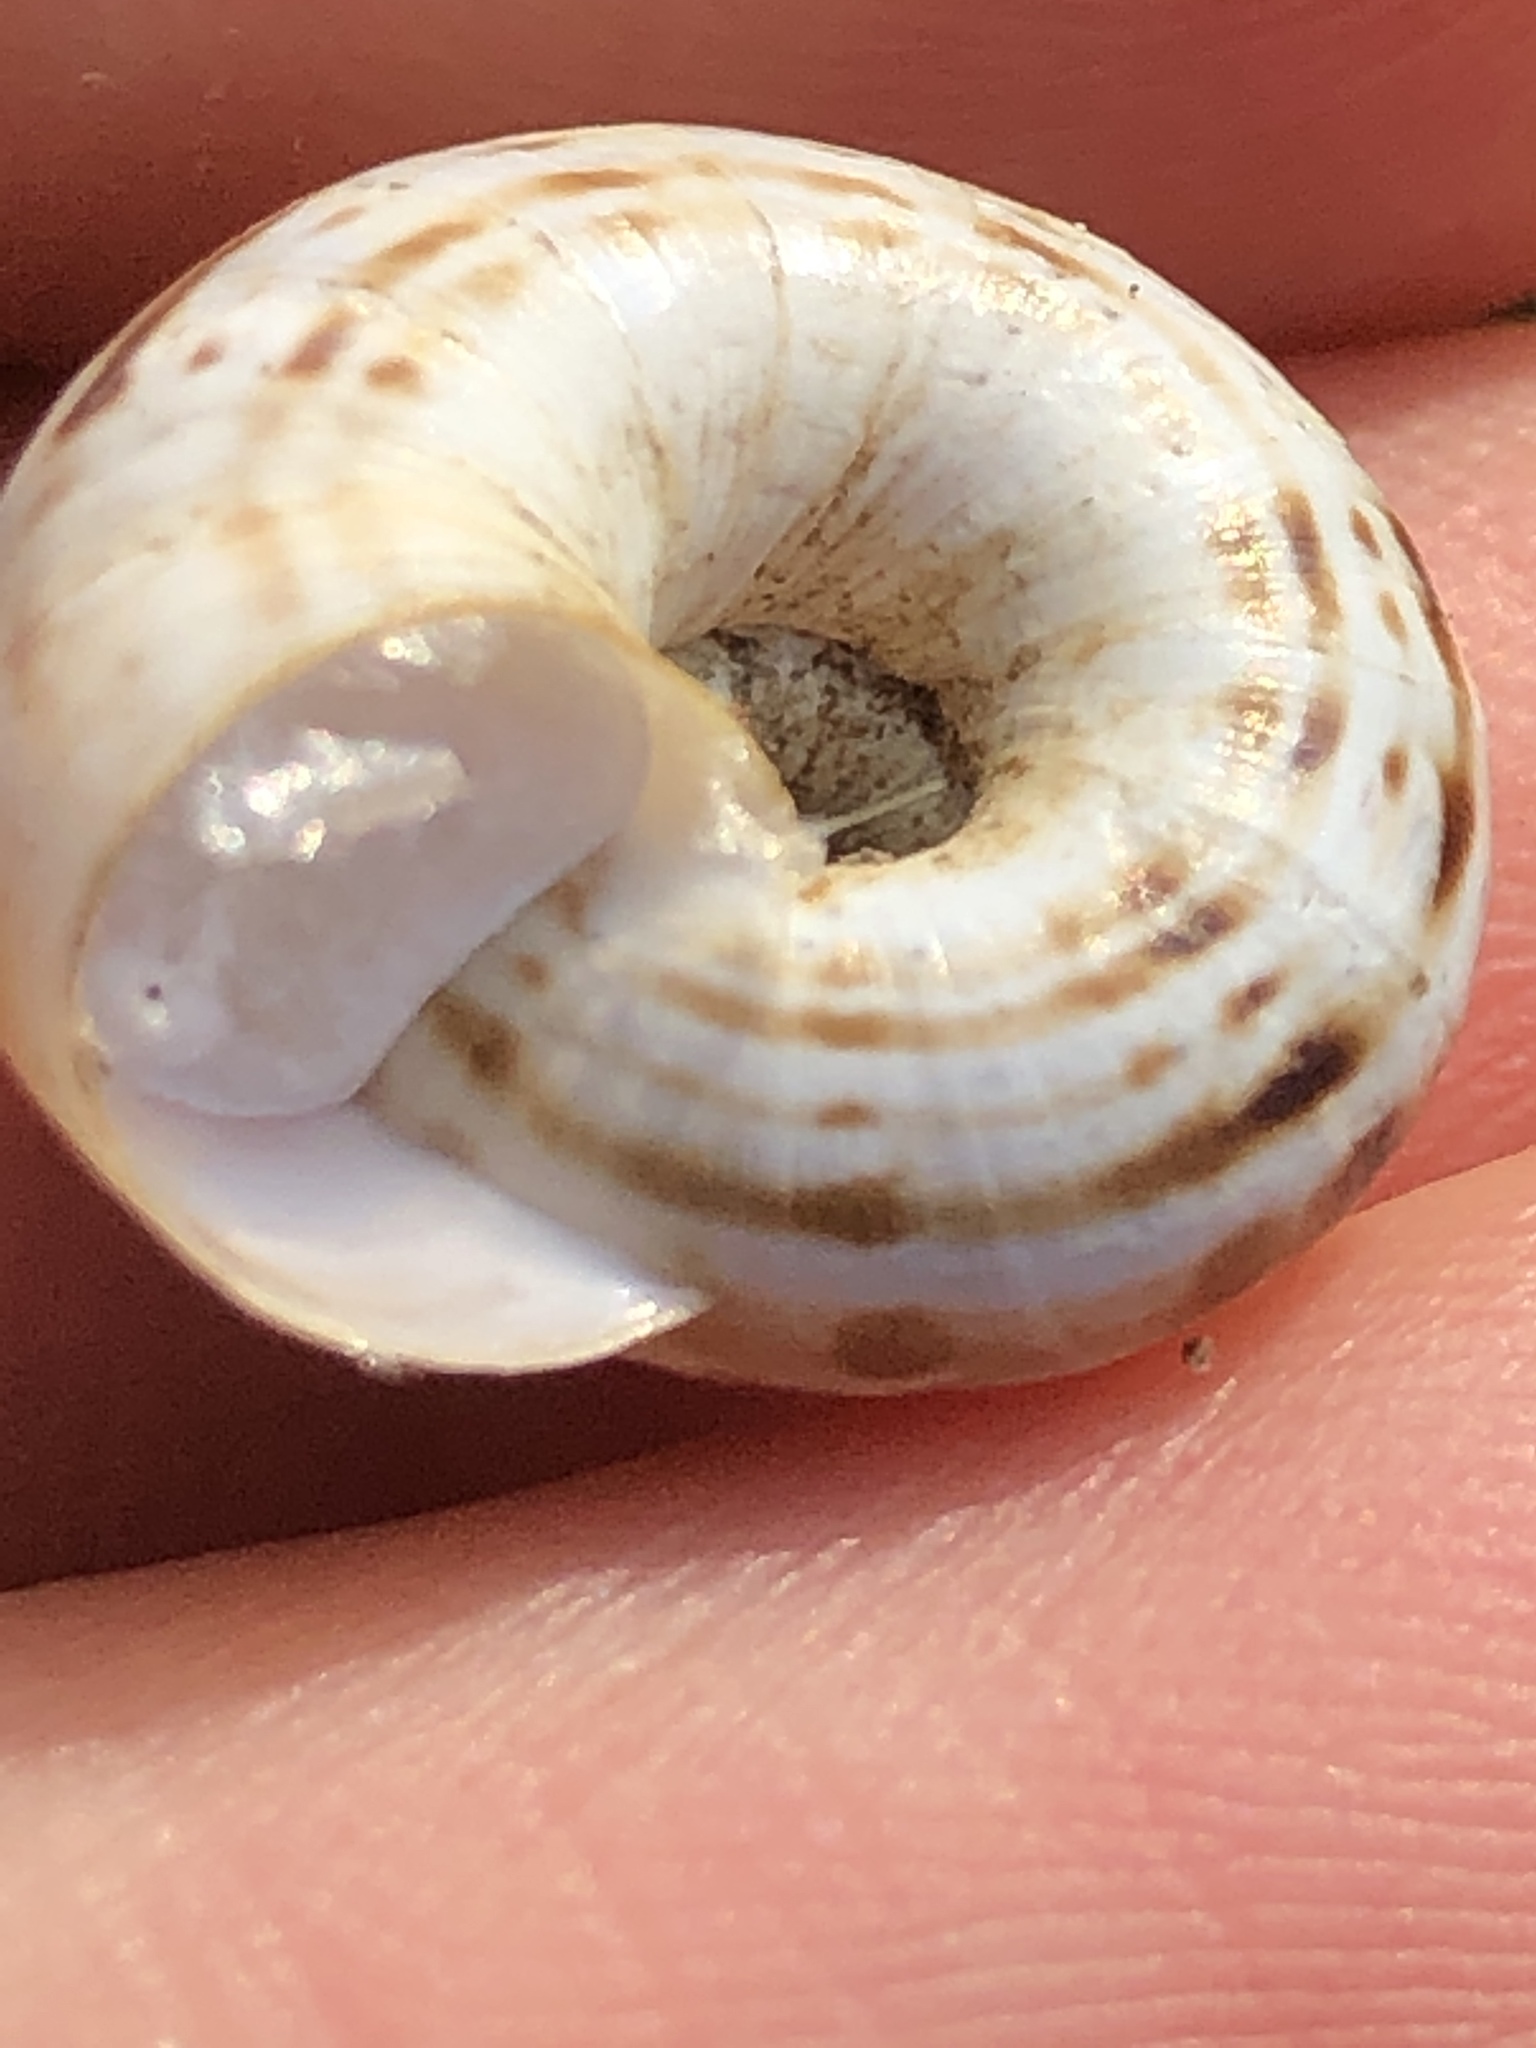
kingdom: Animalia
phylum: Mollusca
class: Gastropoda
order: Stylommatophora
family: Geomitridae
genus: Xerolenta
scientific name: Xerolenta obvia
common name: White heath snail
